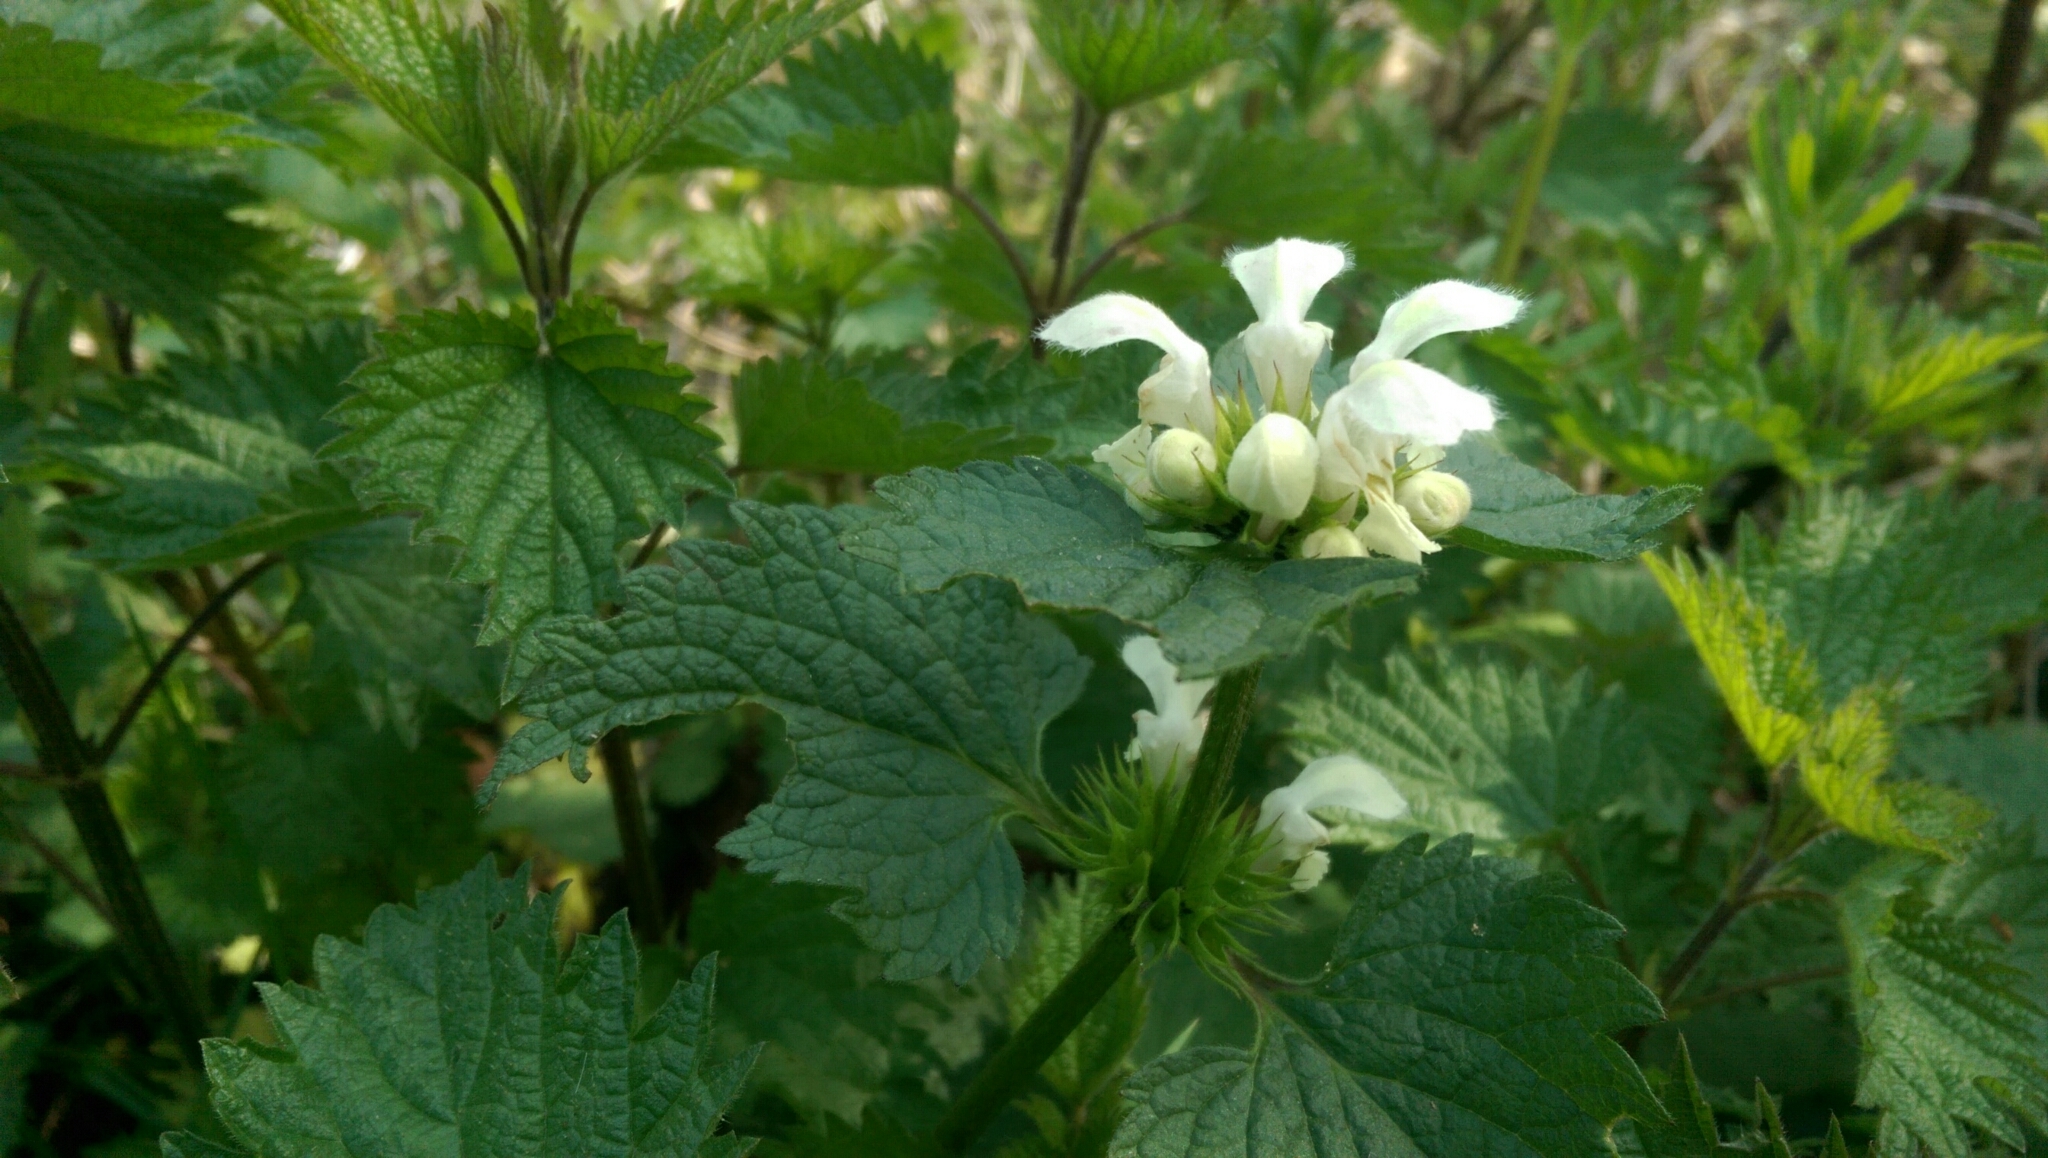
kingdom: Plantae
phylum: Tracheophyta
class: Magnoliopsida
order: Lamiales
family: Lamiaceae
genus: Lamium
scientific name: Lamium album
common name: White dead-nettle
